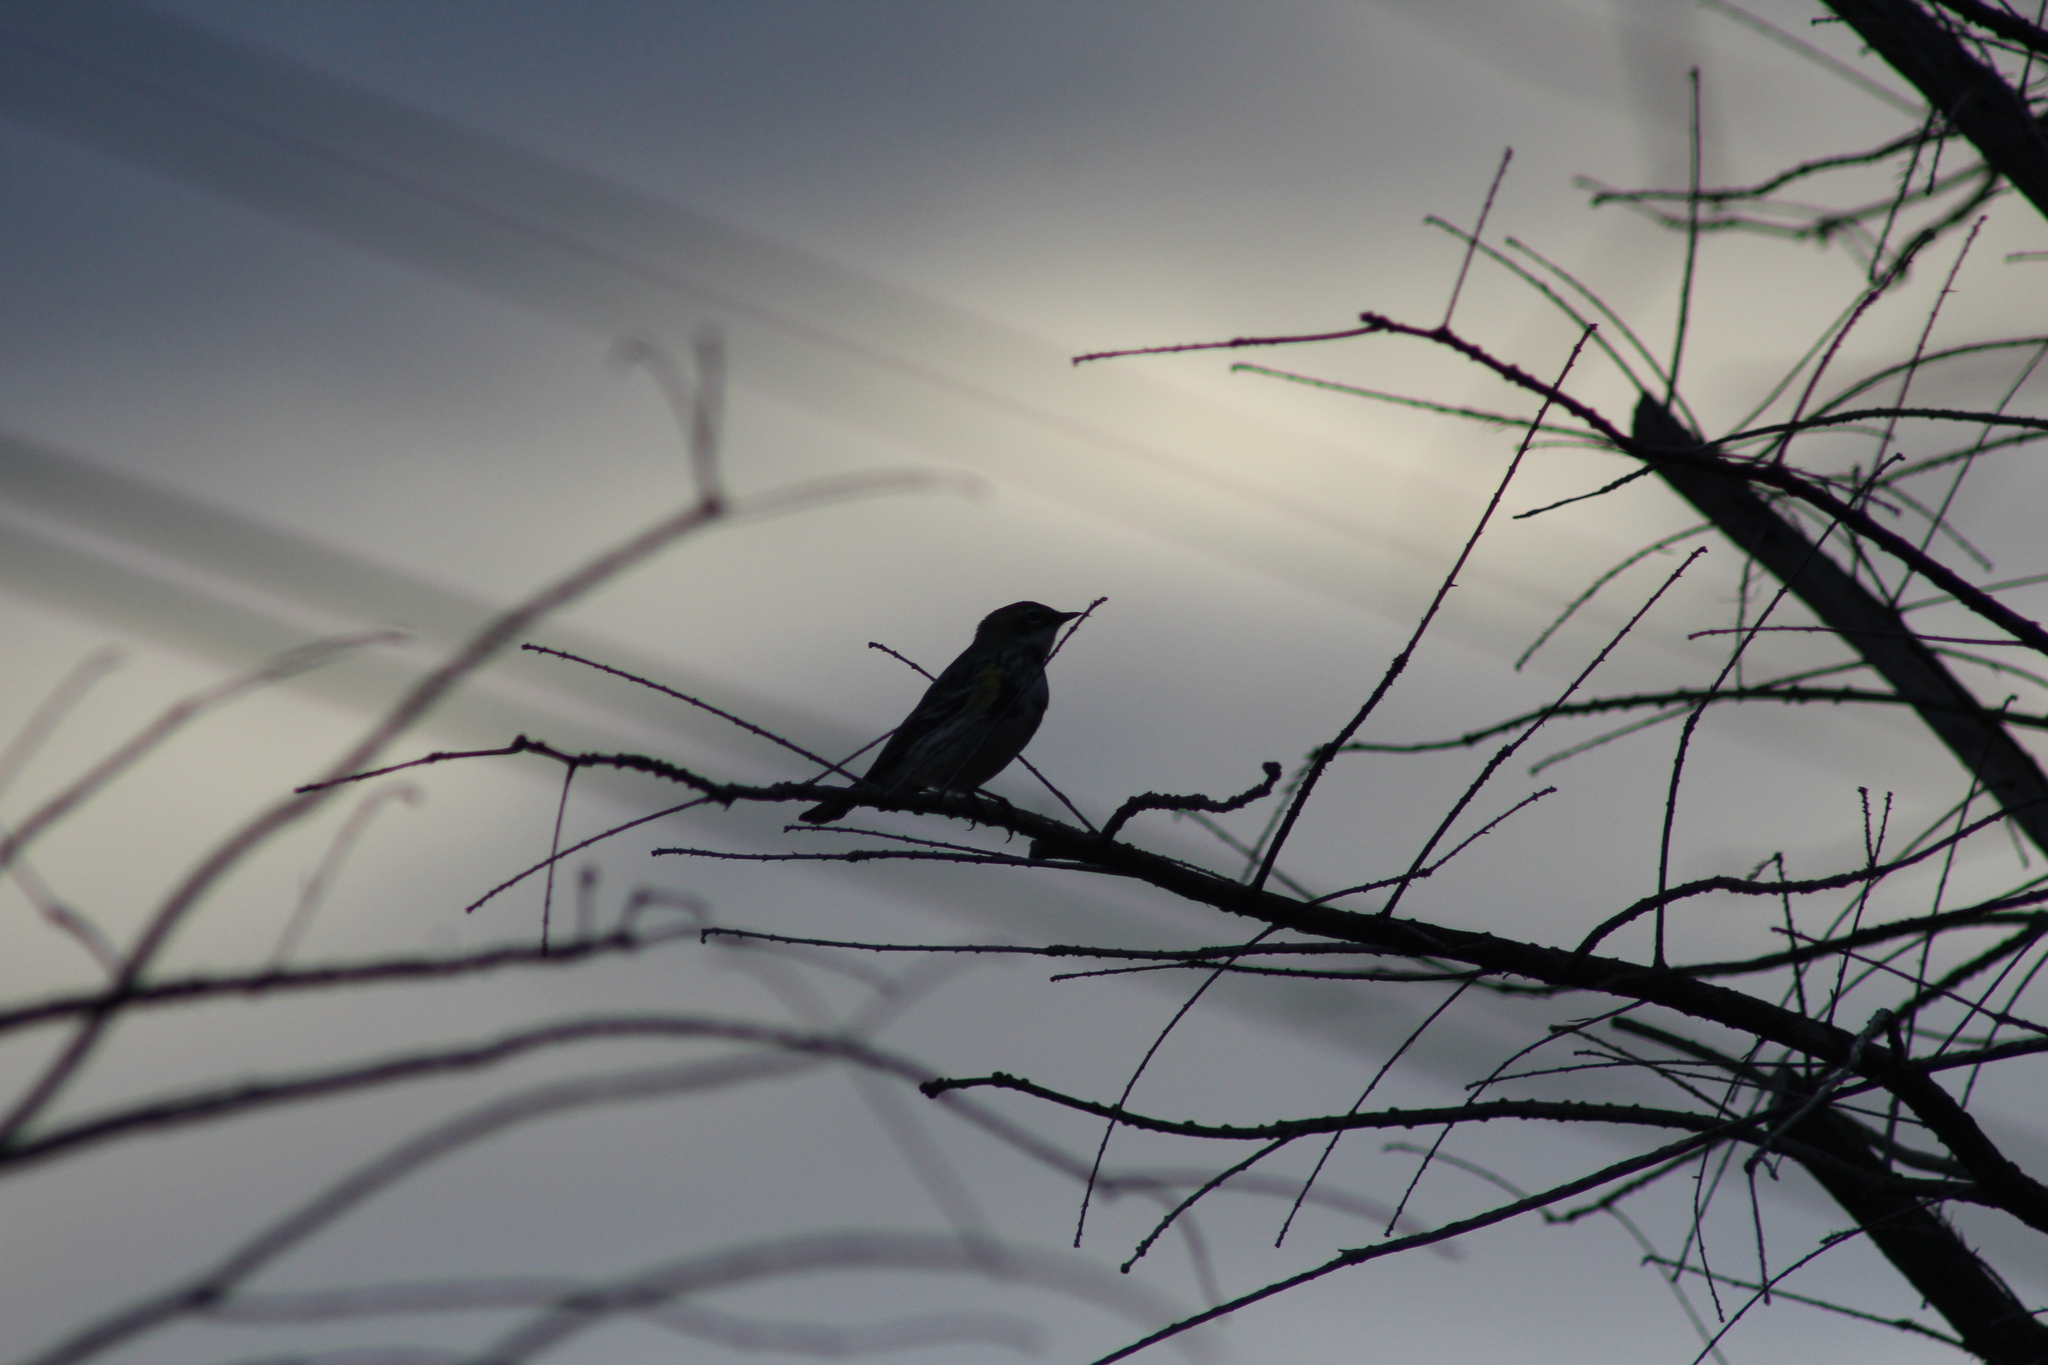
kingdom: Animalia
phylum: Chordata
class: Aves
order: Passeriformes
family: Parulidae
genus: Setophaga
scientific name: Setophaga coronata
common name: Myrtle warbler
